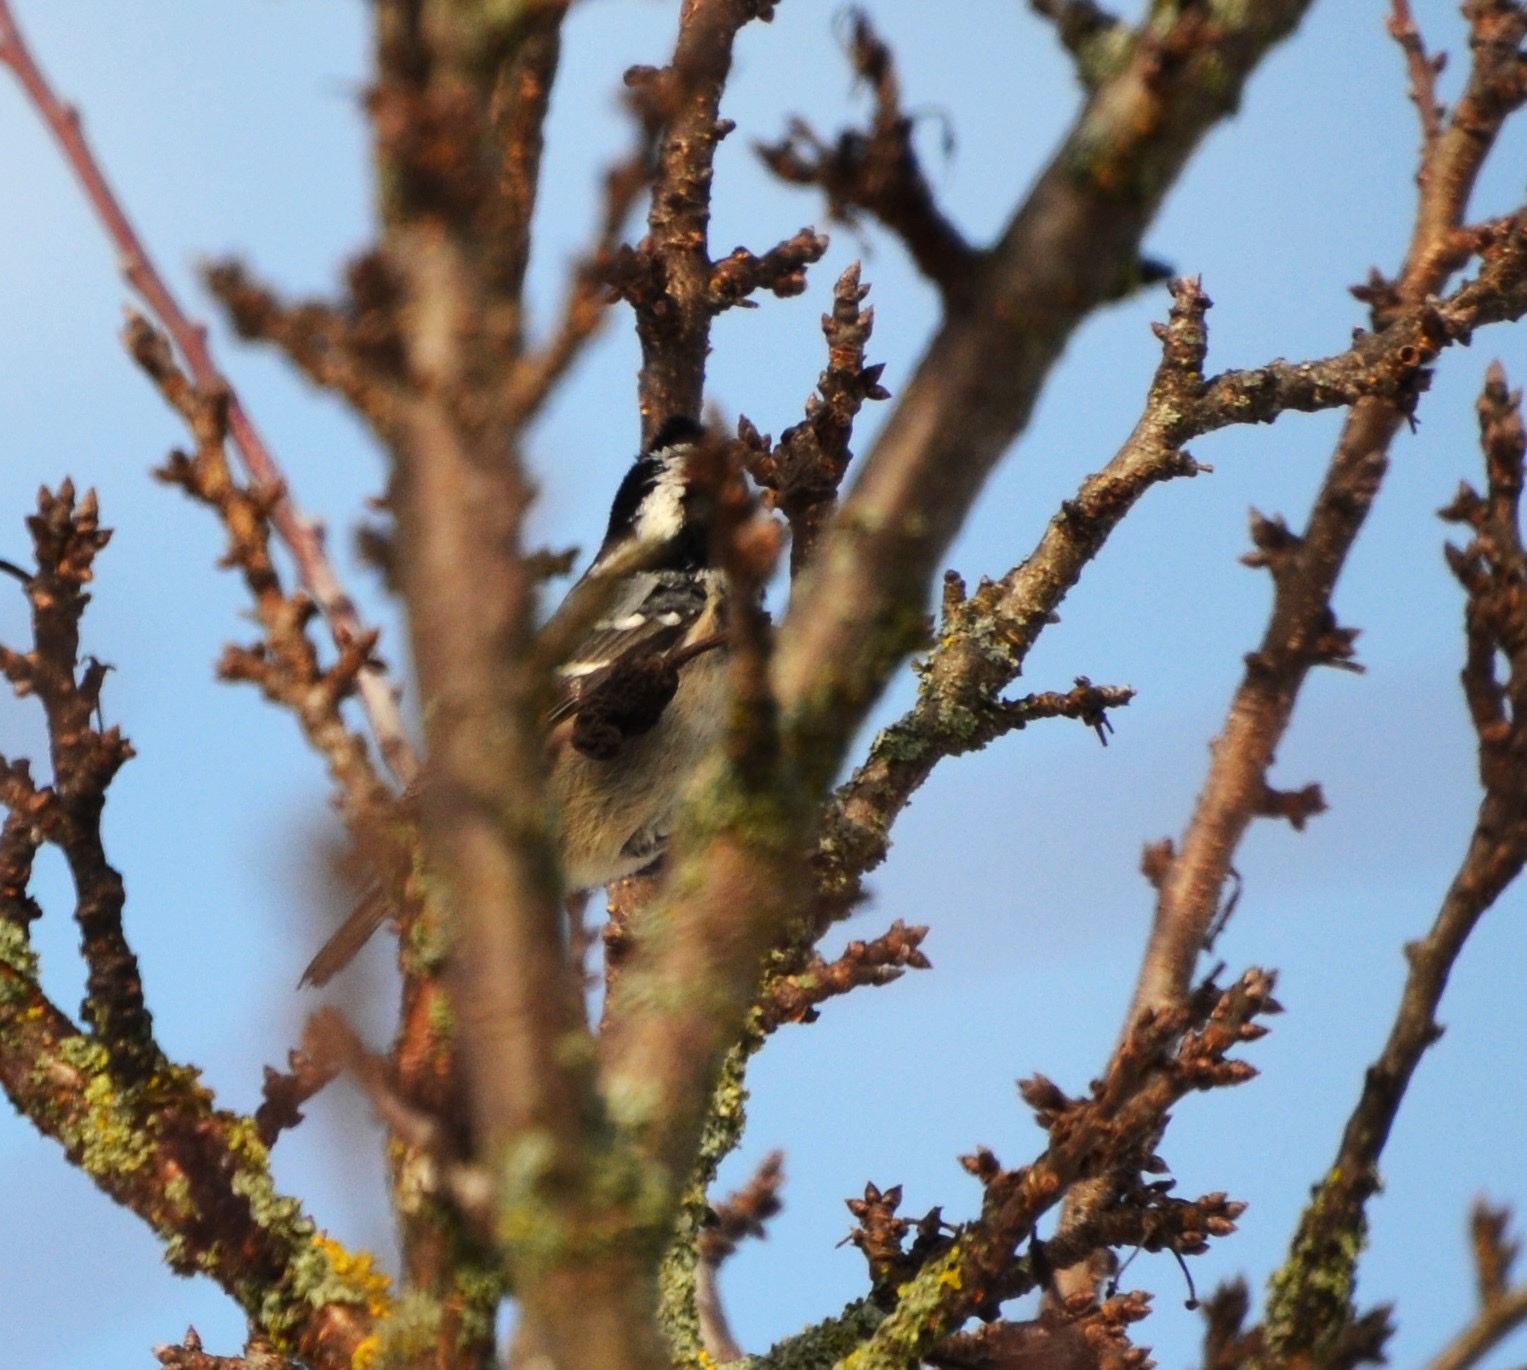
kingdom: Animalia
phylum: Chordata
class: Aves
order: Passeriformes
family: Paridae
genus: Periparus
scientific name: Periparus ater
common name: Coal tit
